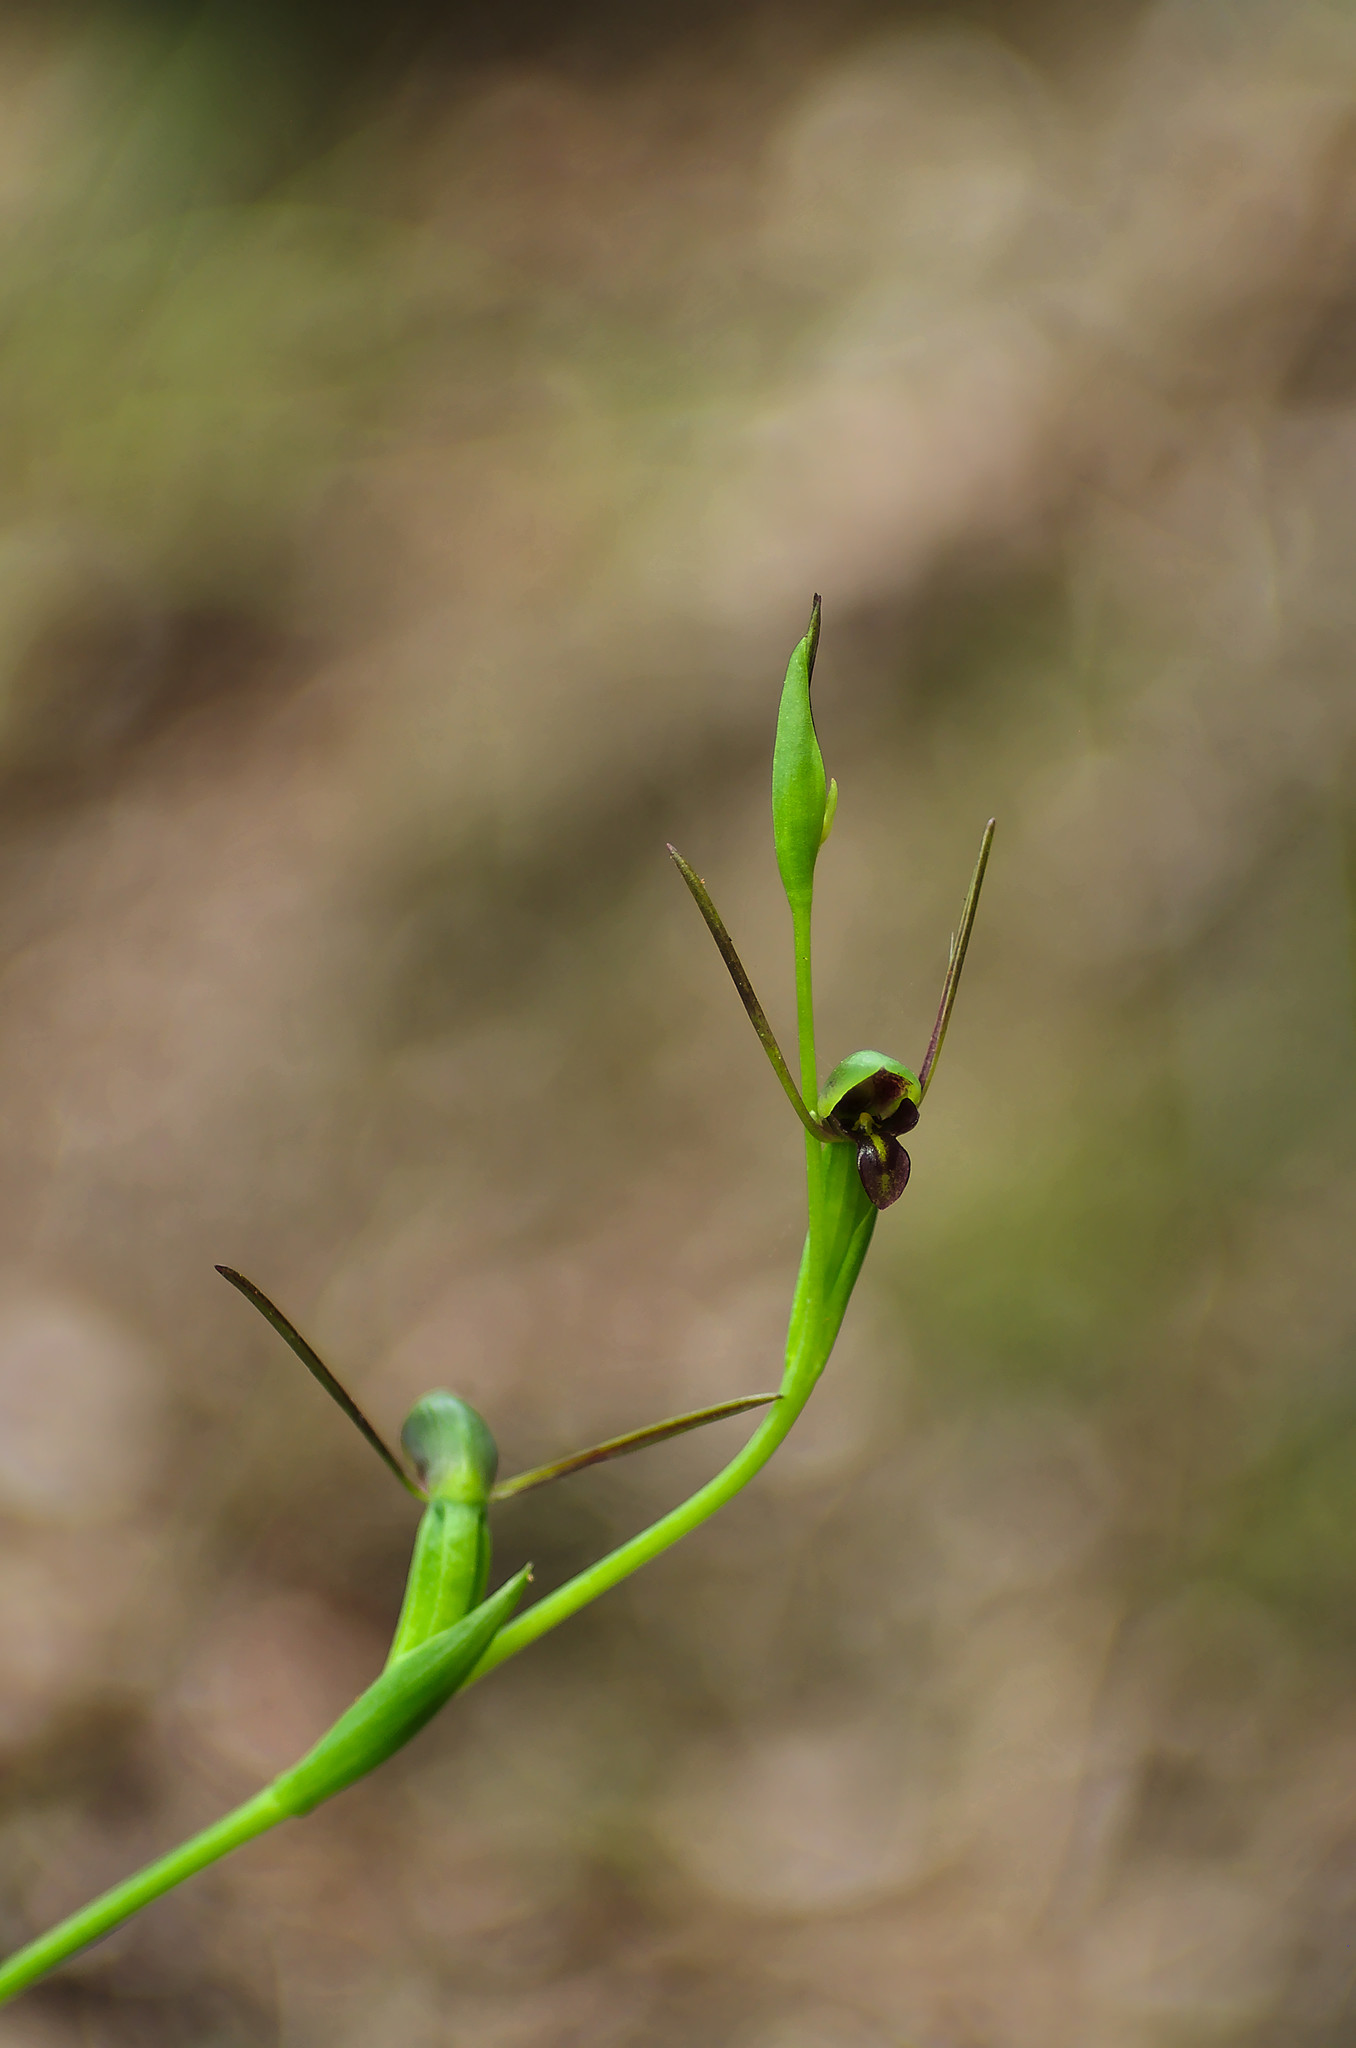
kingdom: Plantae
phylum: Tracheophyta
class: Liliopsida
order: Asparagales
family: Orchidaceae
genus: Orthoceras
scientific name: Orthoceras novae-zeelandiae
